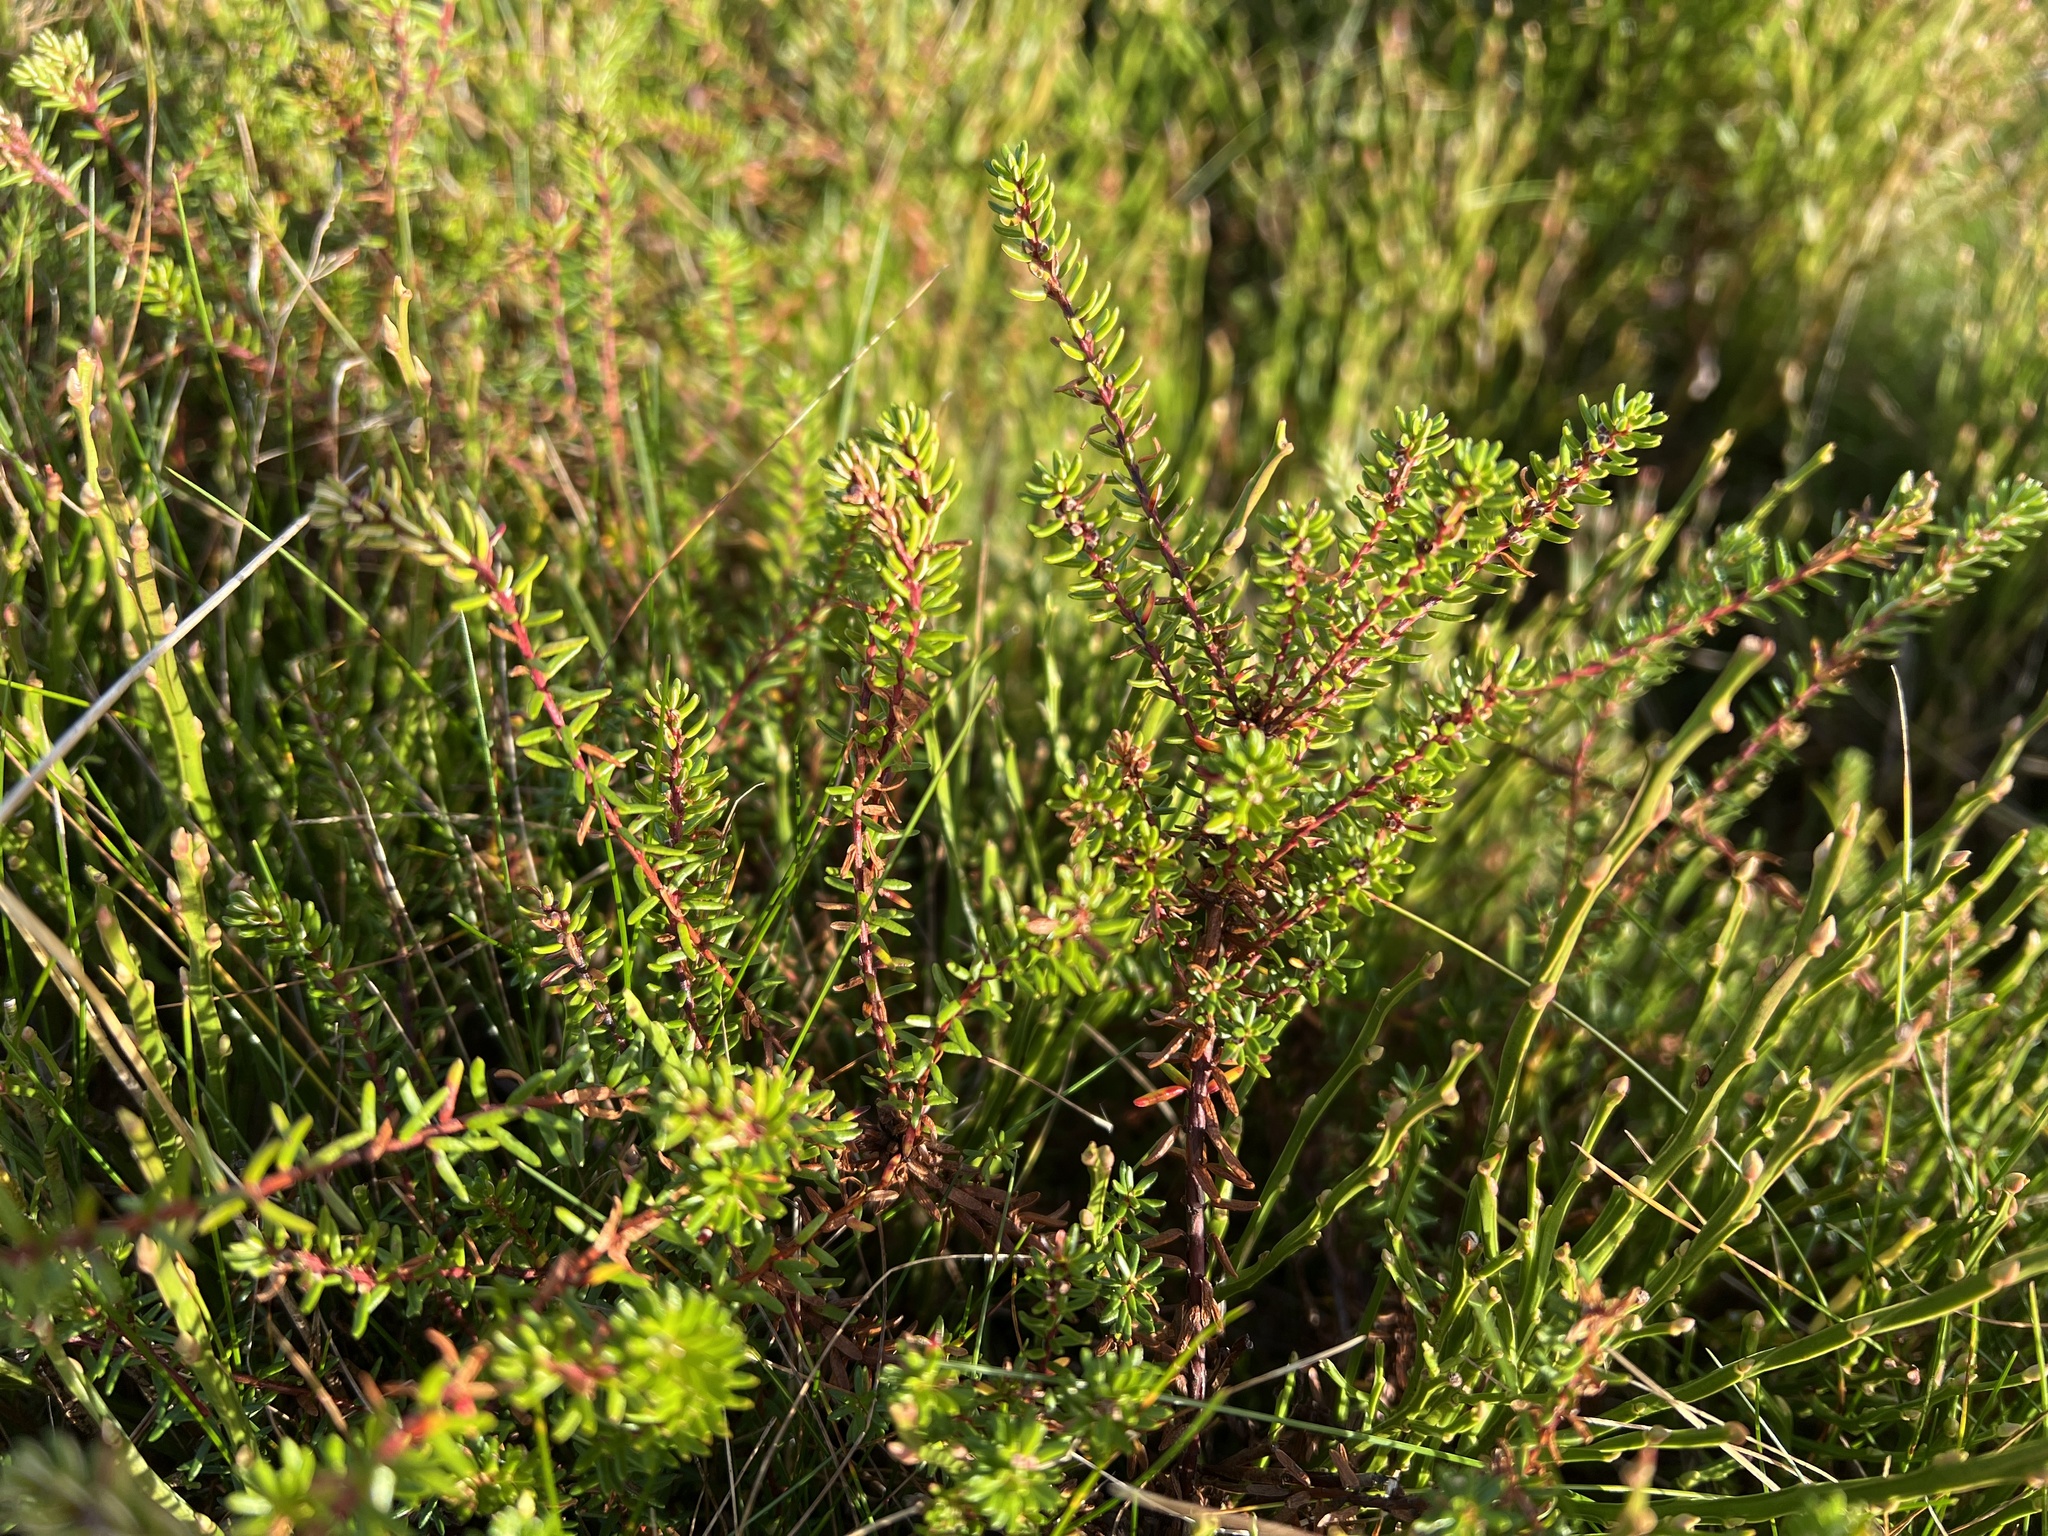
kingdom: Plantae
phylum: Tracheophyta
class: Magnoliopsida
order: Ericales
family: Ericaceae
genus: Empetrum
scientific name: Empetrum nigrum
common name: Black crowberry
